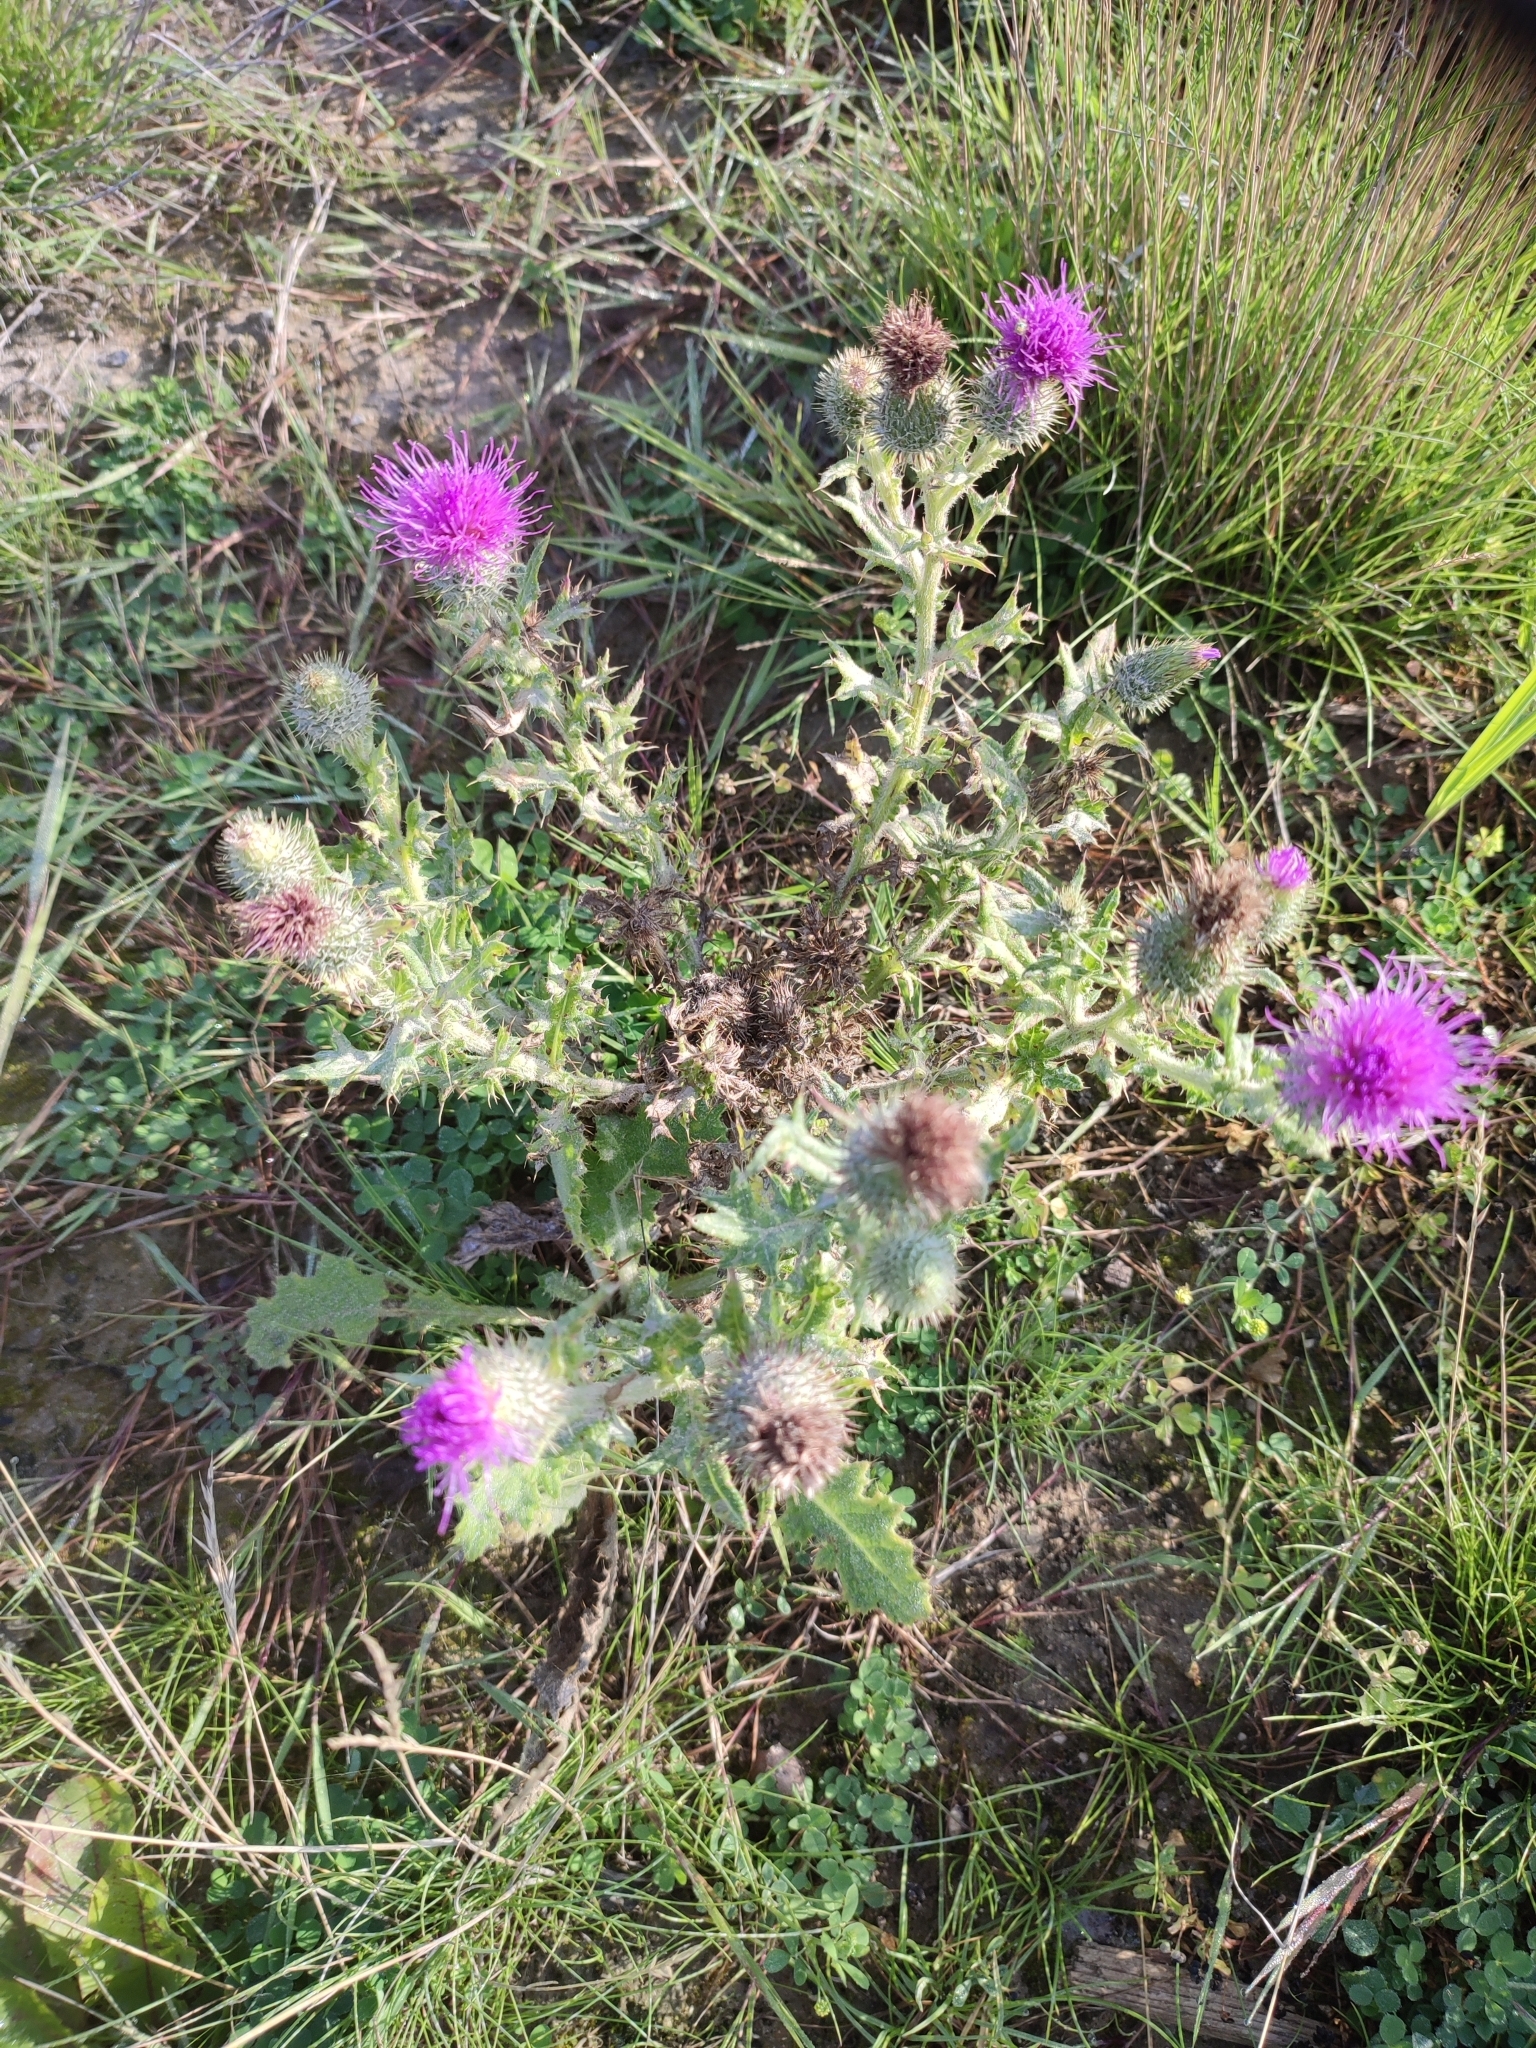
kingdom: Plantae
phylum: Tracheophyta
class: Magnoliopsida
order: Asterales
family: Asteraceae
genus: Cirsium
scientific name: Cirsium vulgare
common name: Bull thistle
